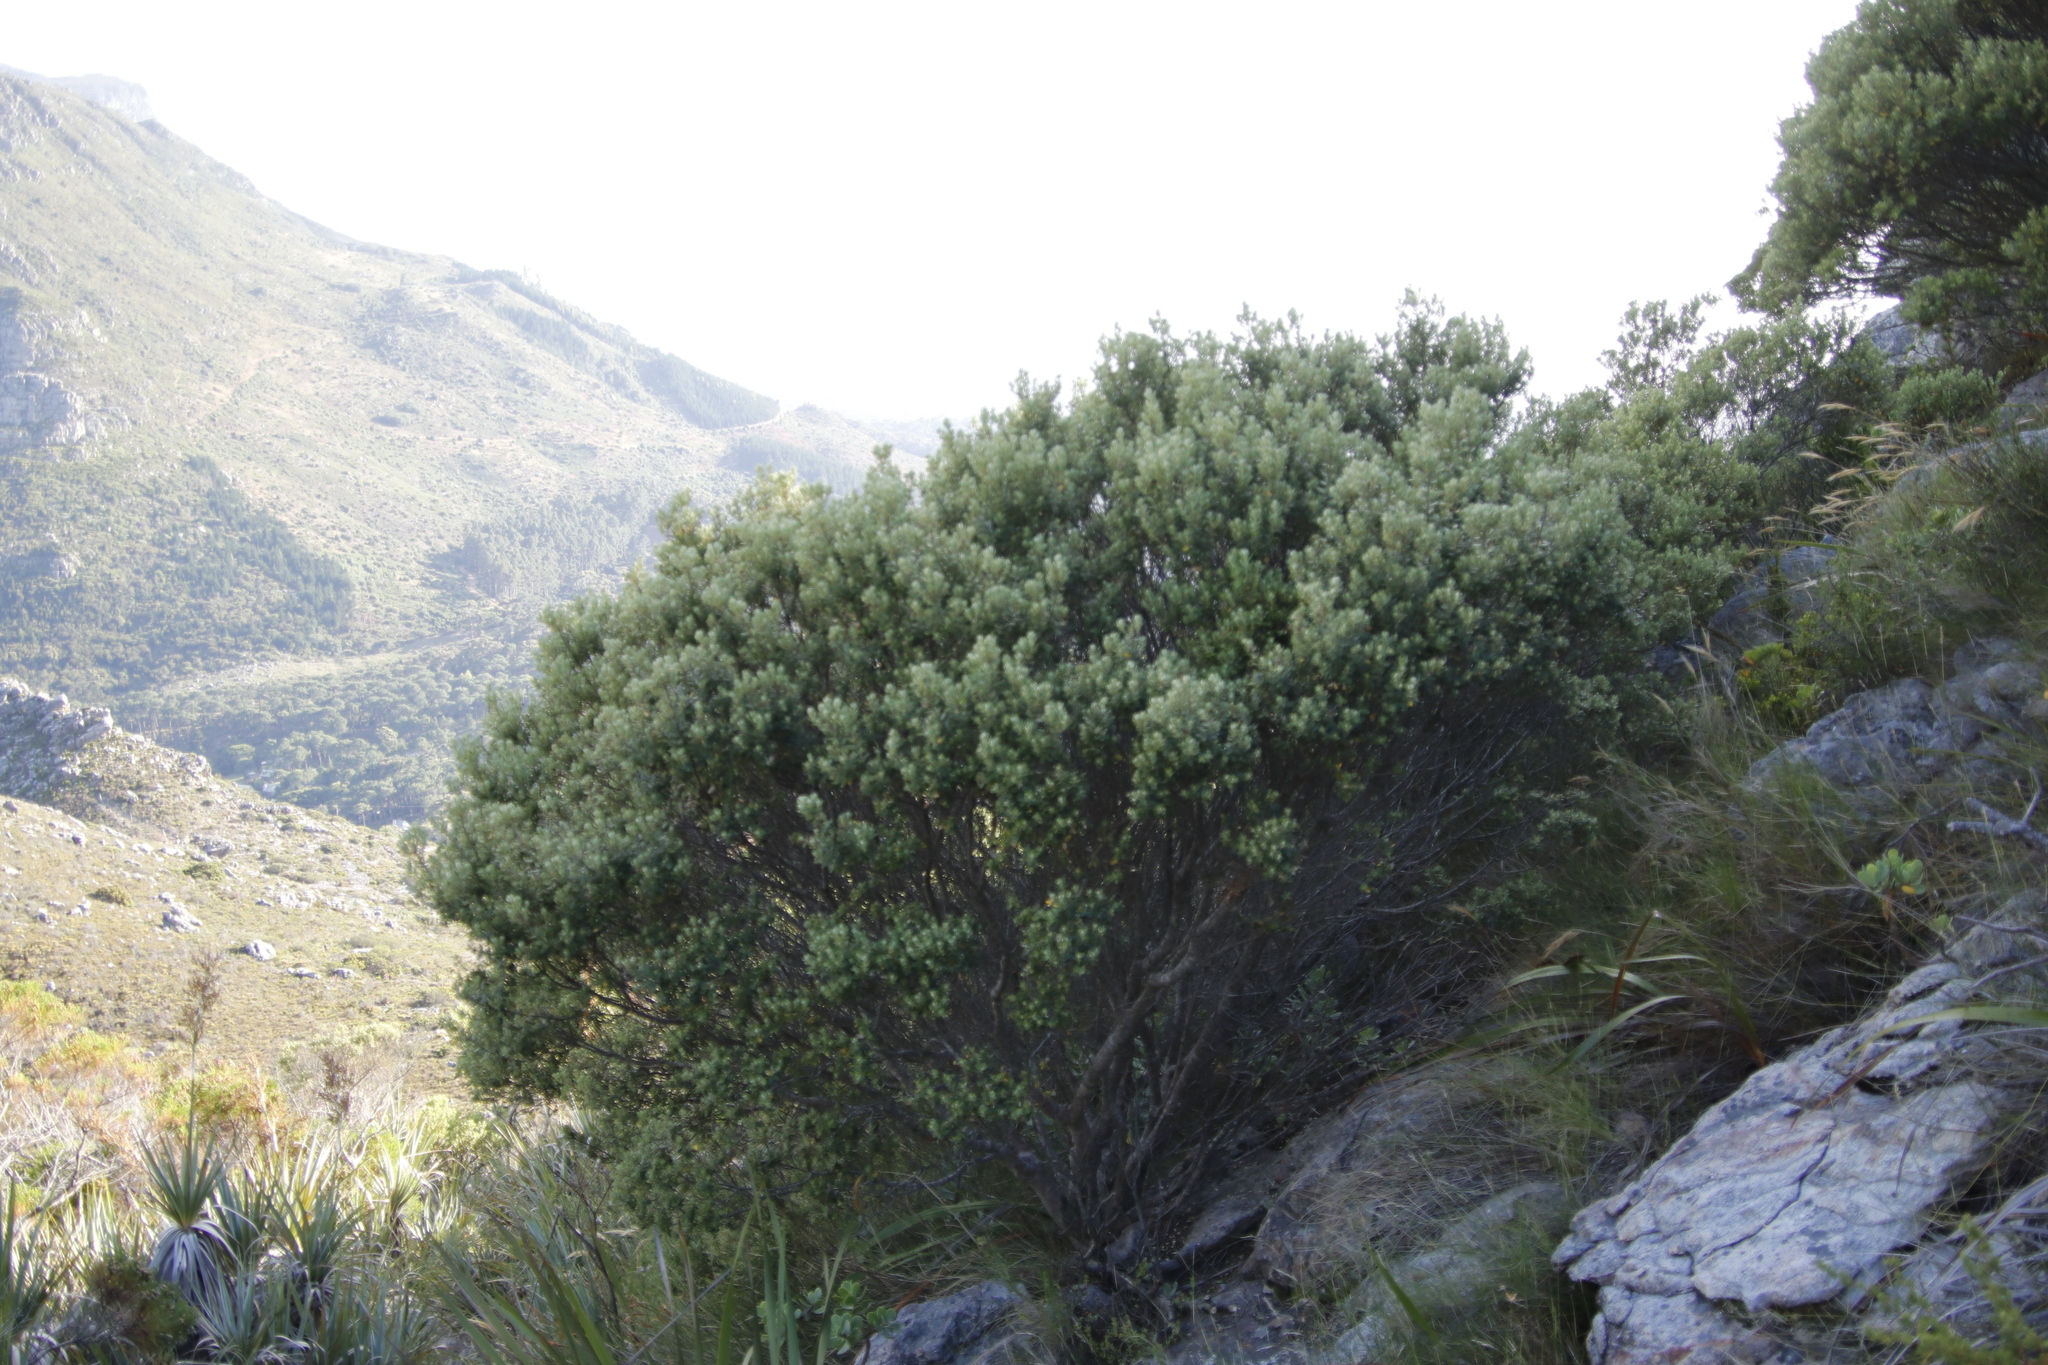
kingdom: Plantae
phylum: Tracheophyta
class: Magnoliopsida
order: Rosales
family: Rhamnaceae
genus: Phylica
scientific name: Phylica buxifolia
